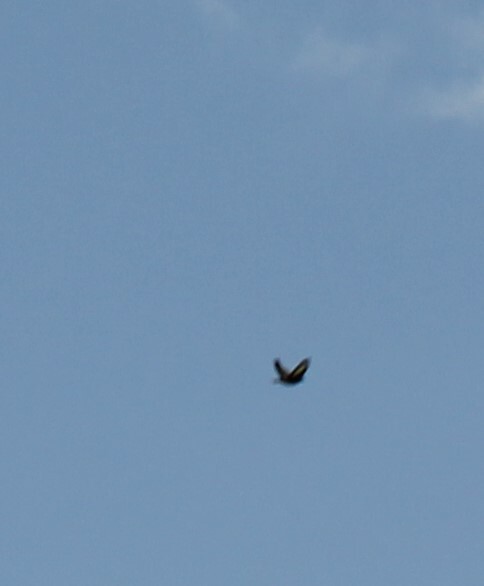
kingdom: Animalia
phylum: Chordata
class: Aves
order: Passeriformes
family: Fringillidae
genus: Carduelis
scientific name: Carduelis carduelis
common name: European goldfinch
